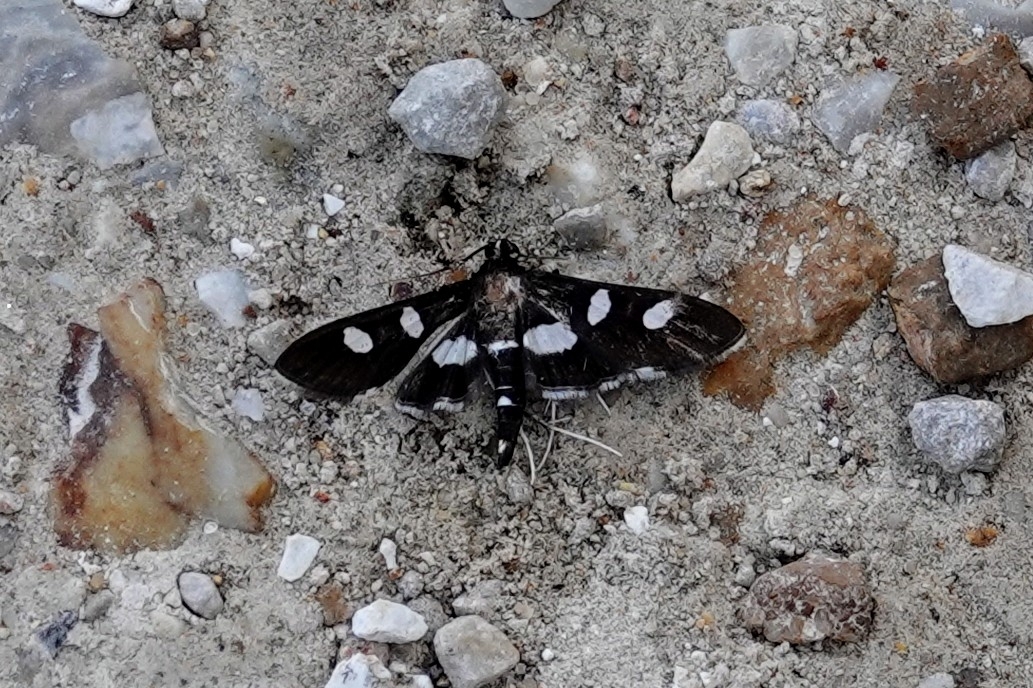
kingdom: Animalia
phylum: Arthropoda
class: Insecta
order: Lepidoptera
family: Crambidae
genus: Desmia
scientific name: Desmia
